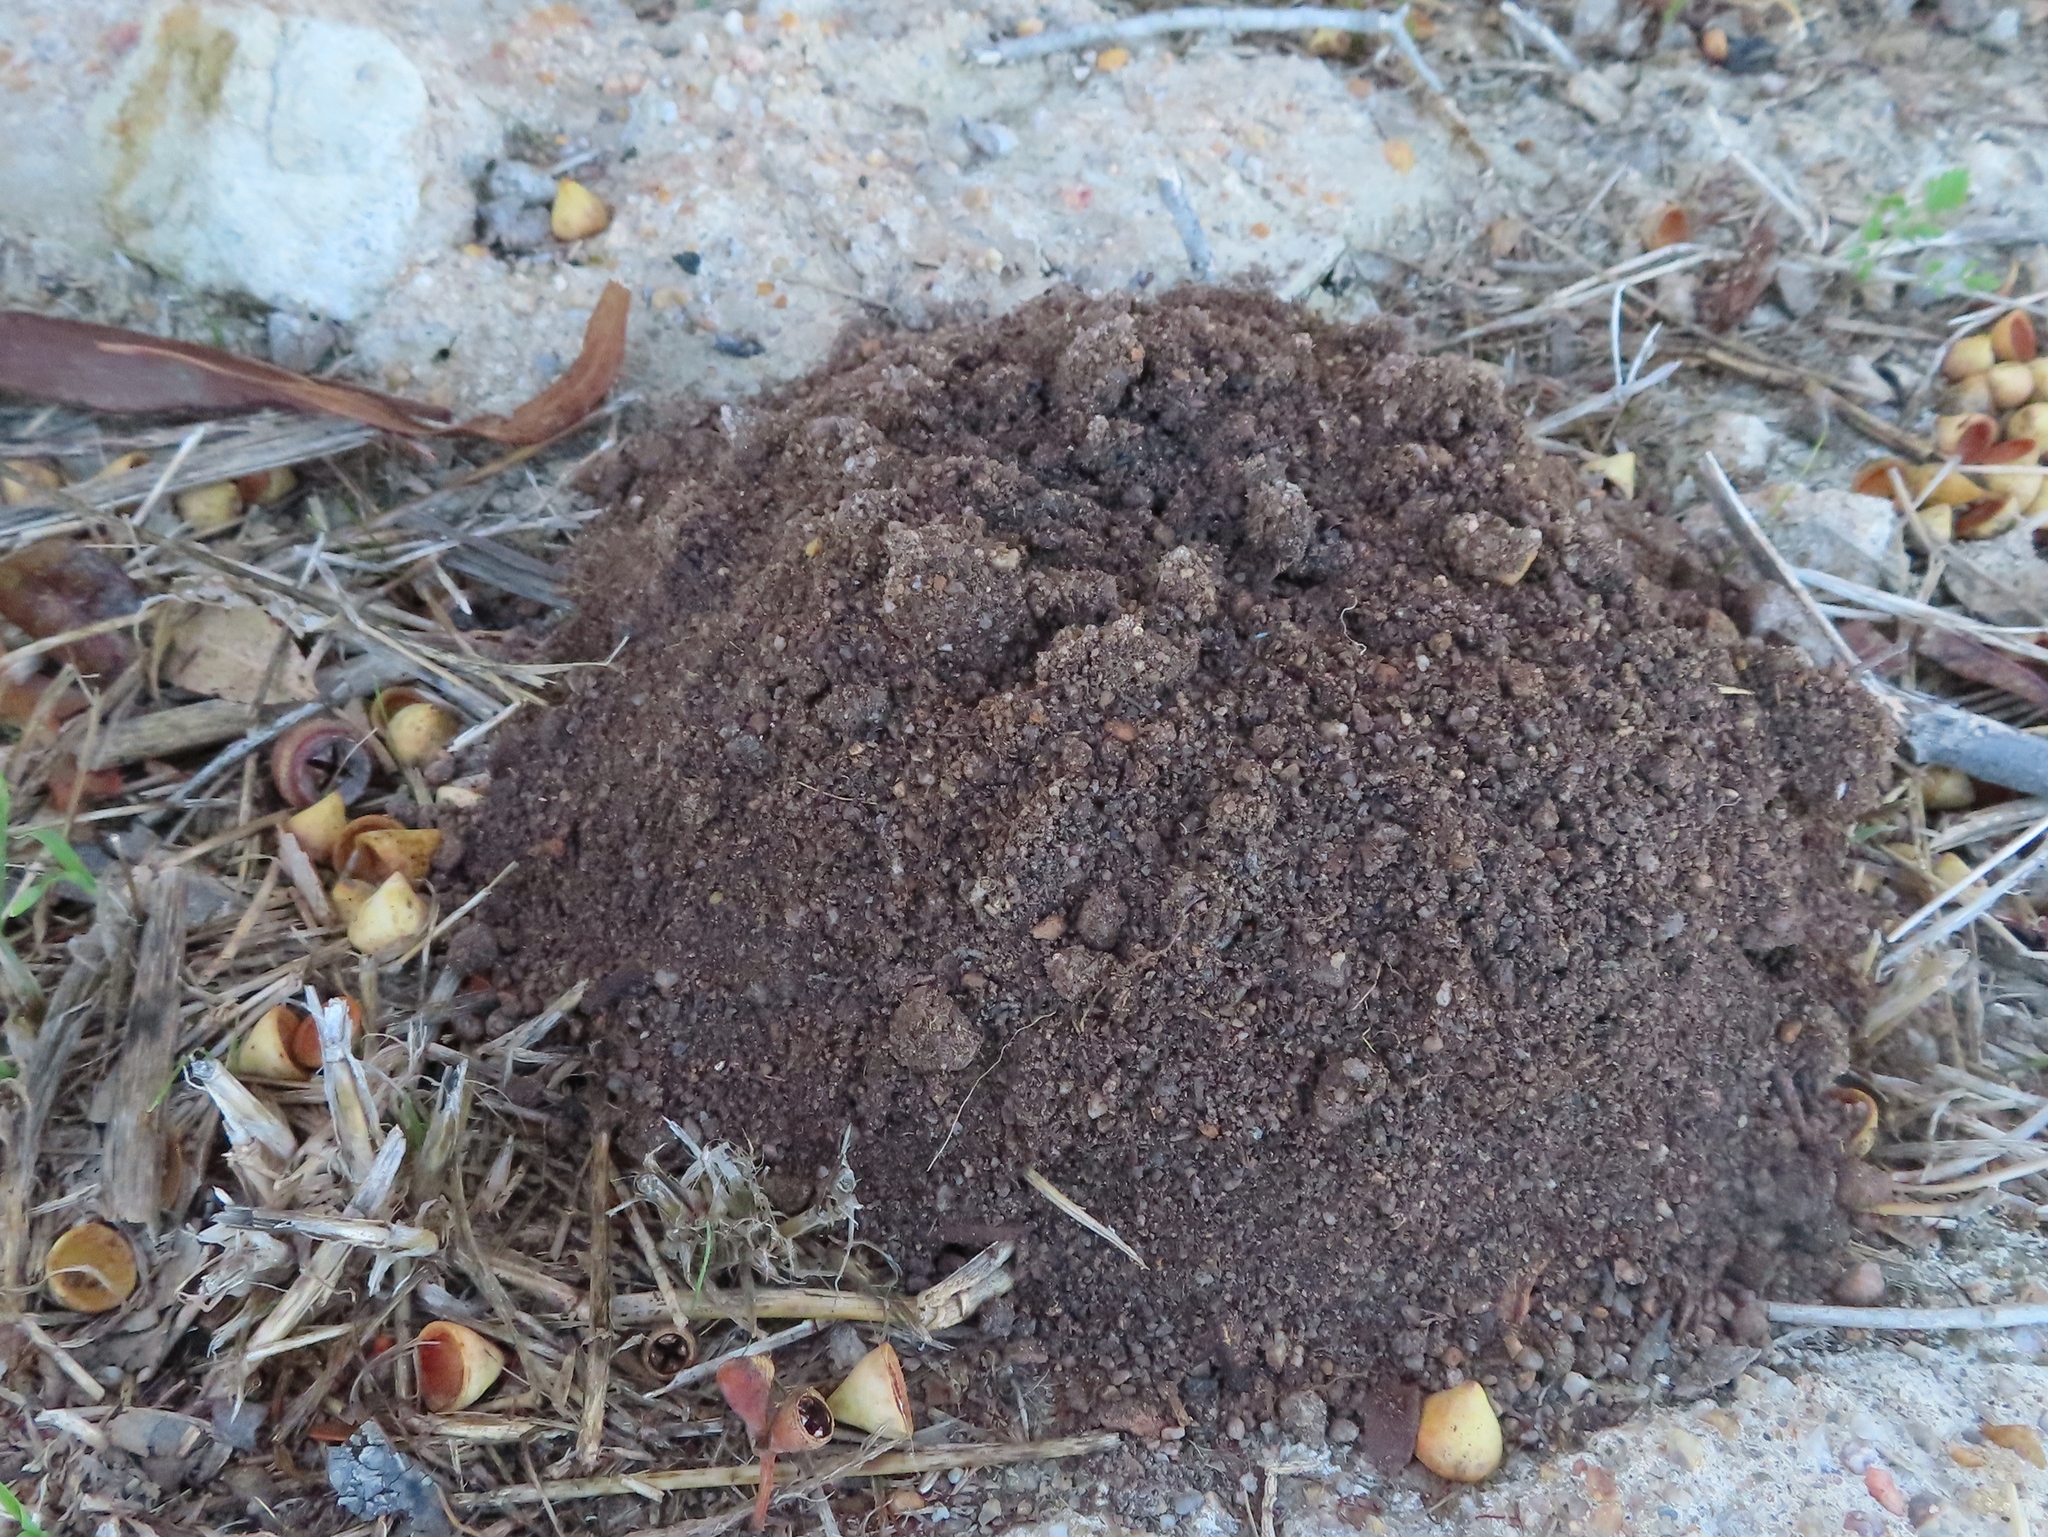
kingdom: Animalia
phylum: Chordata
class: Mammalia
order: Afrosoricida
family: Chrysochloridae
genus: Chrysochloris
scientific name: Chrysochloris asiatica
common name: Cape golden mole
